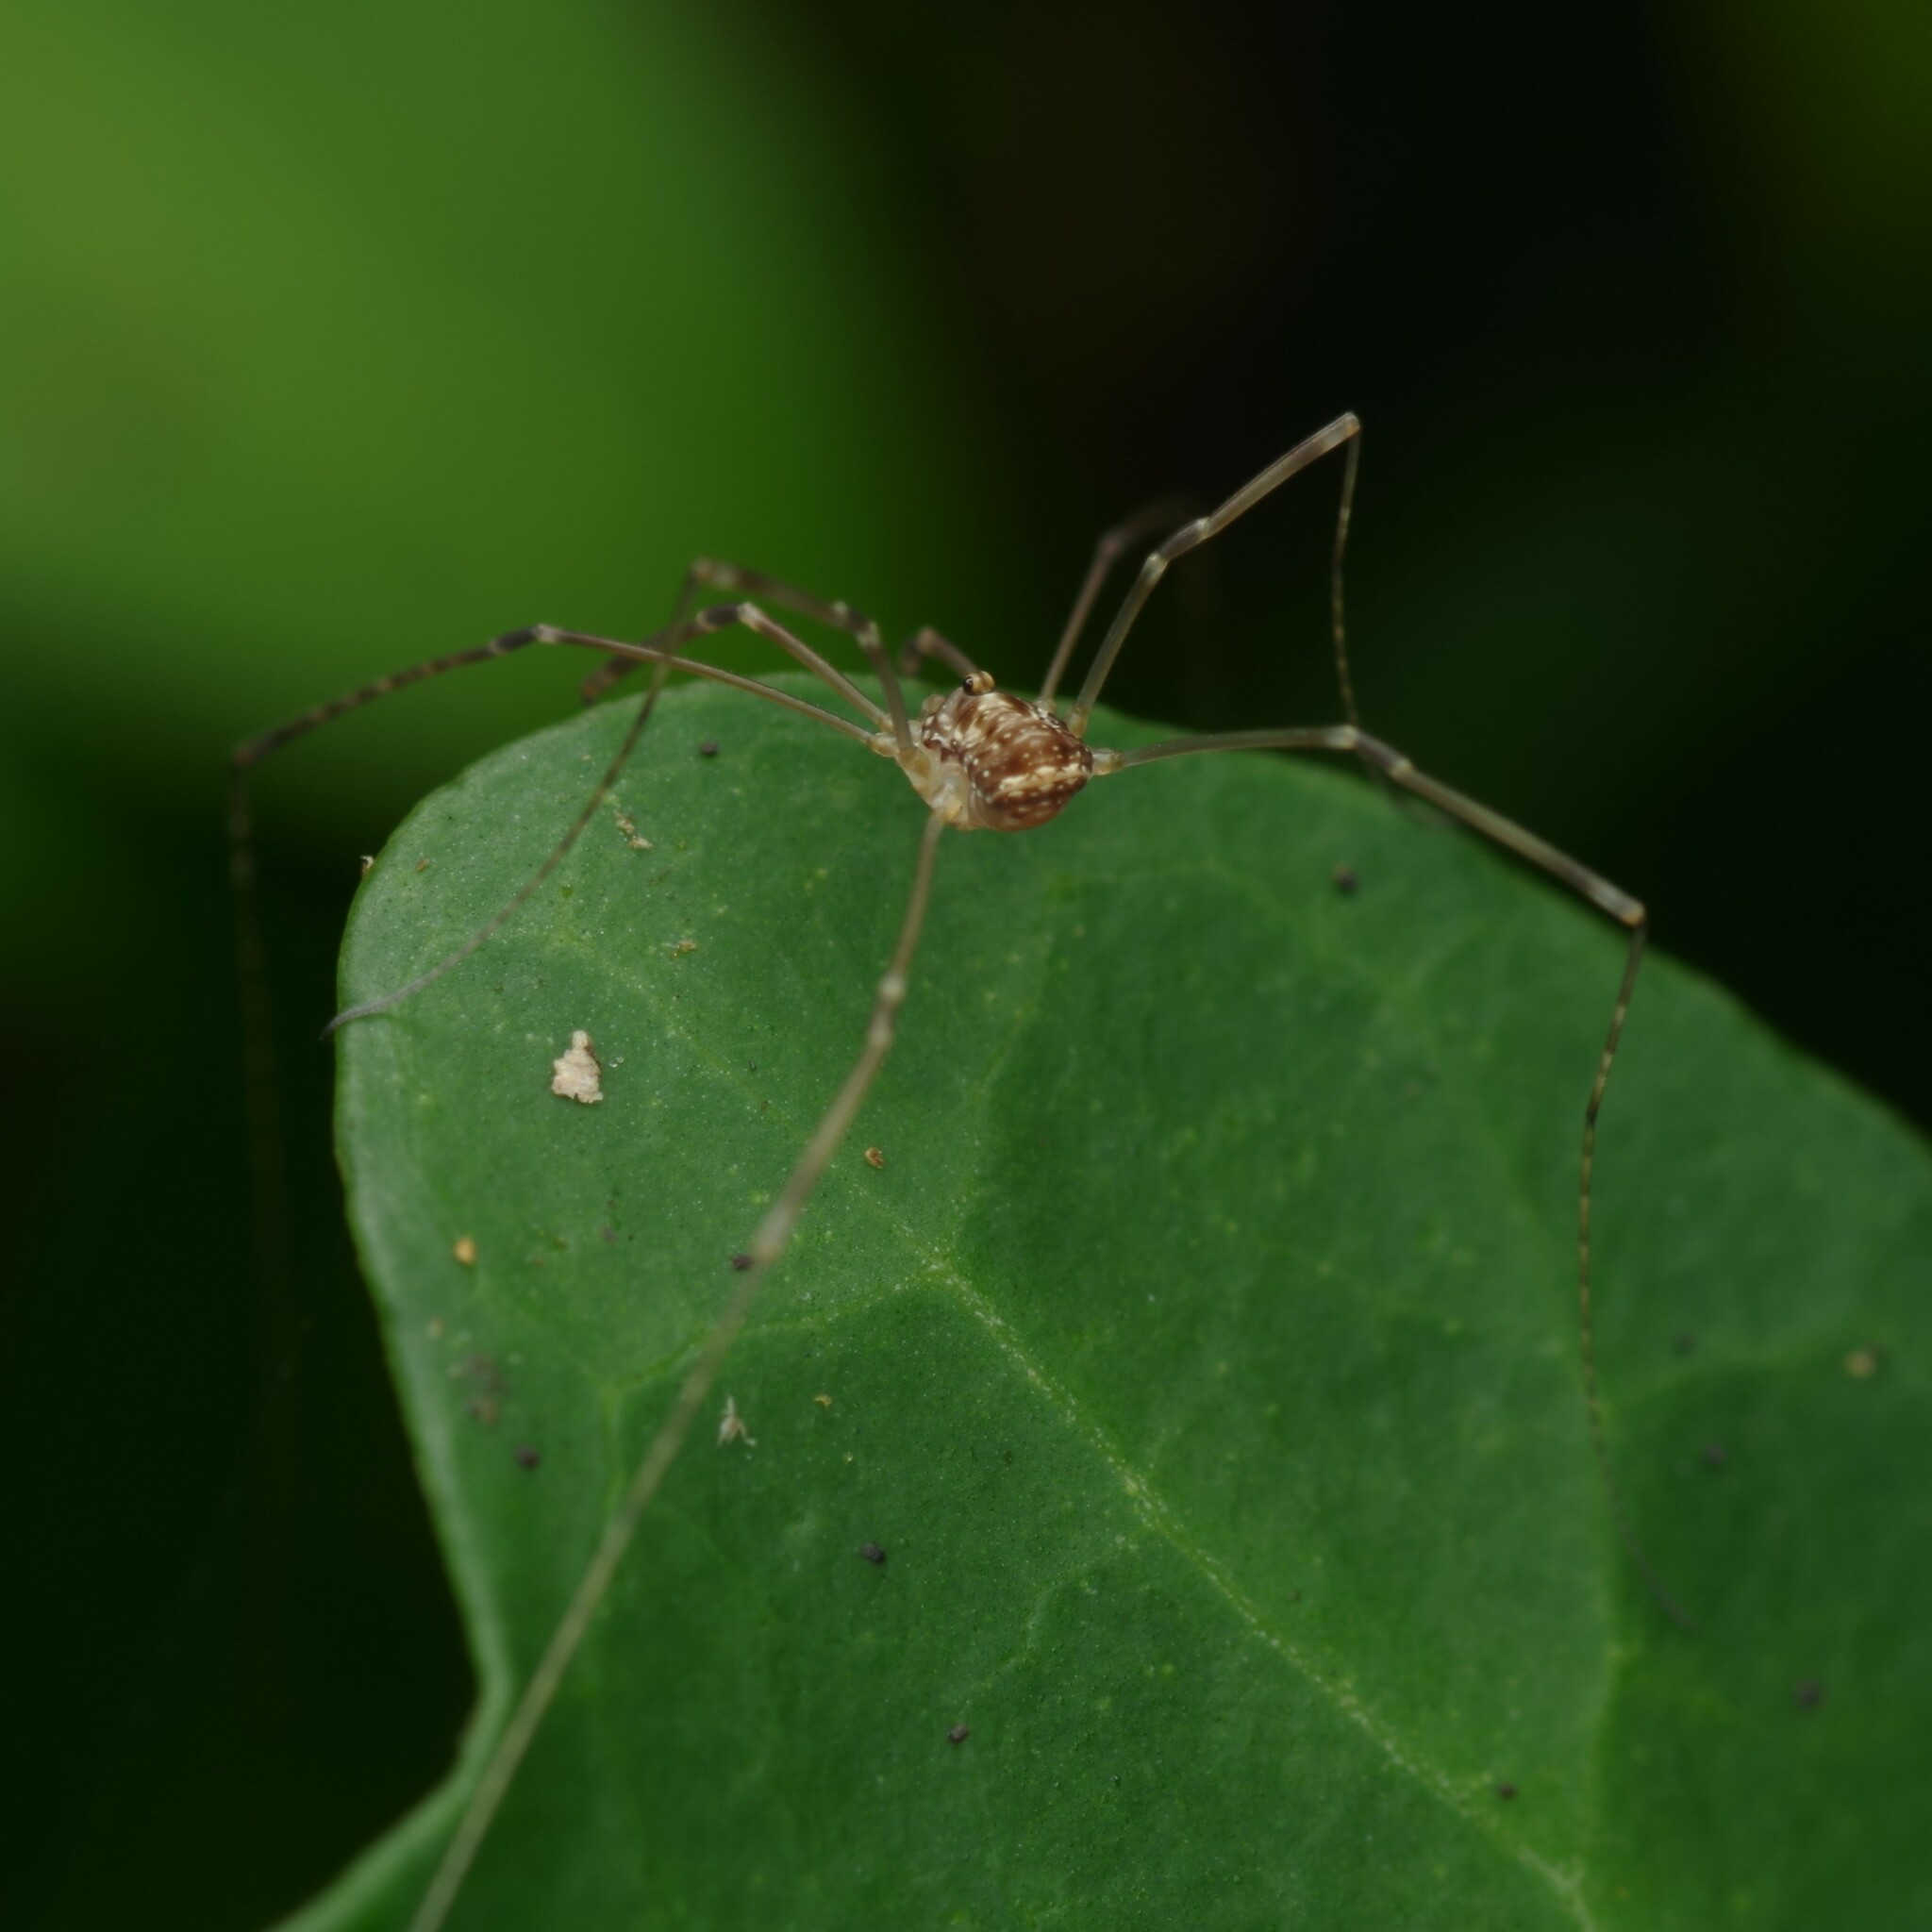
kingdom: Animalia
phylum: Arthropoda
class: Arachnida
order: Opiliones
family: Sclerosomatidae
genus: Leiobunum
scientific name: Leiobunum blackwalli
